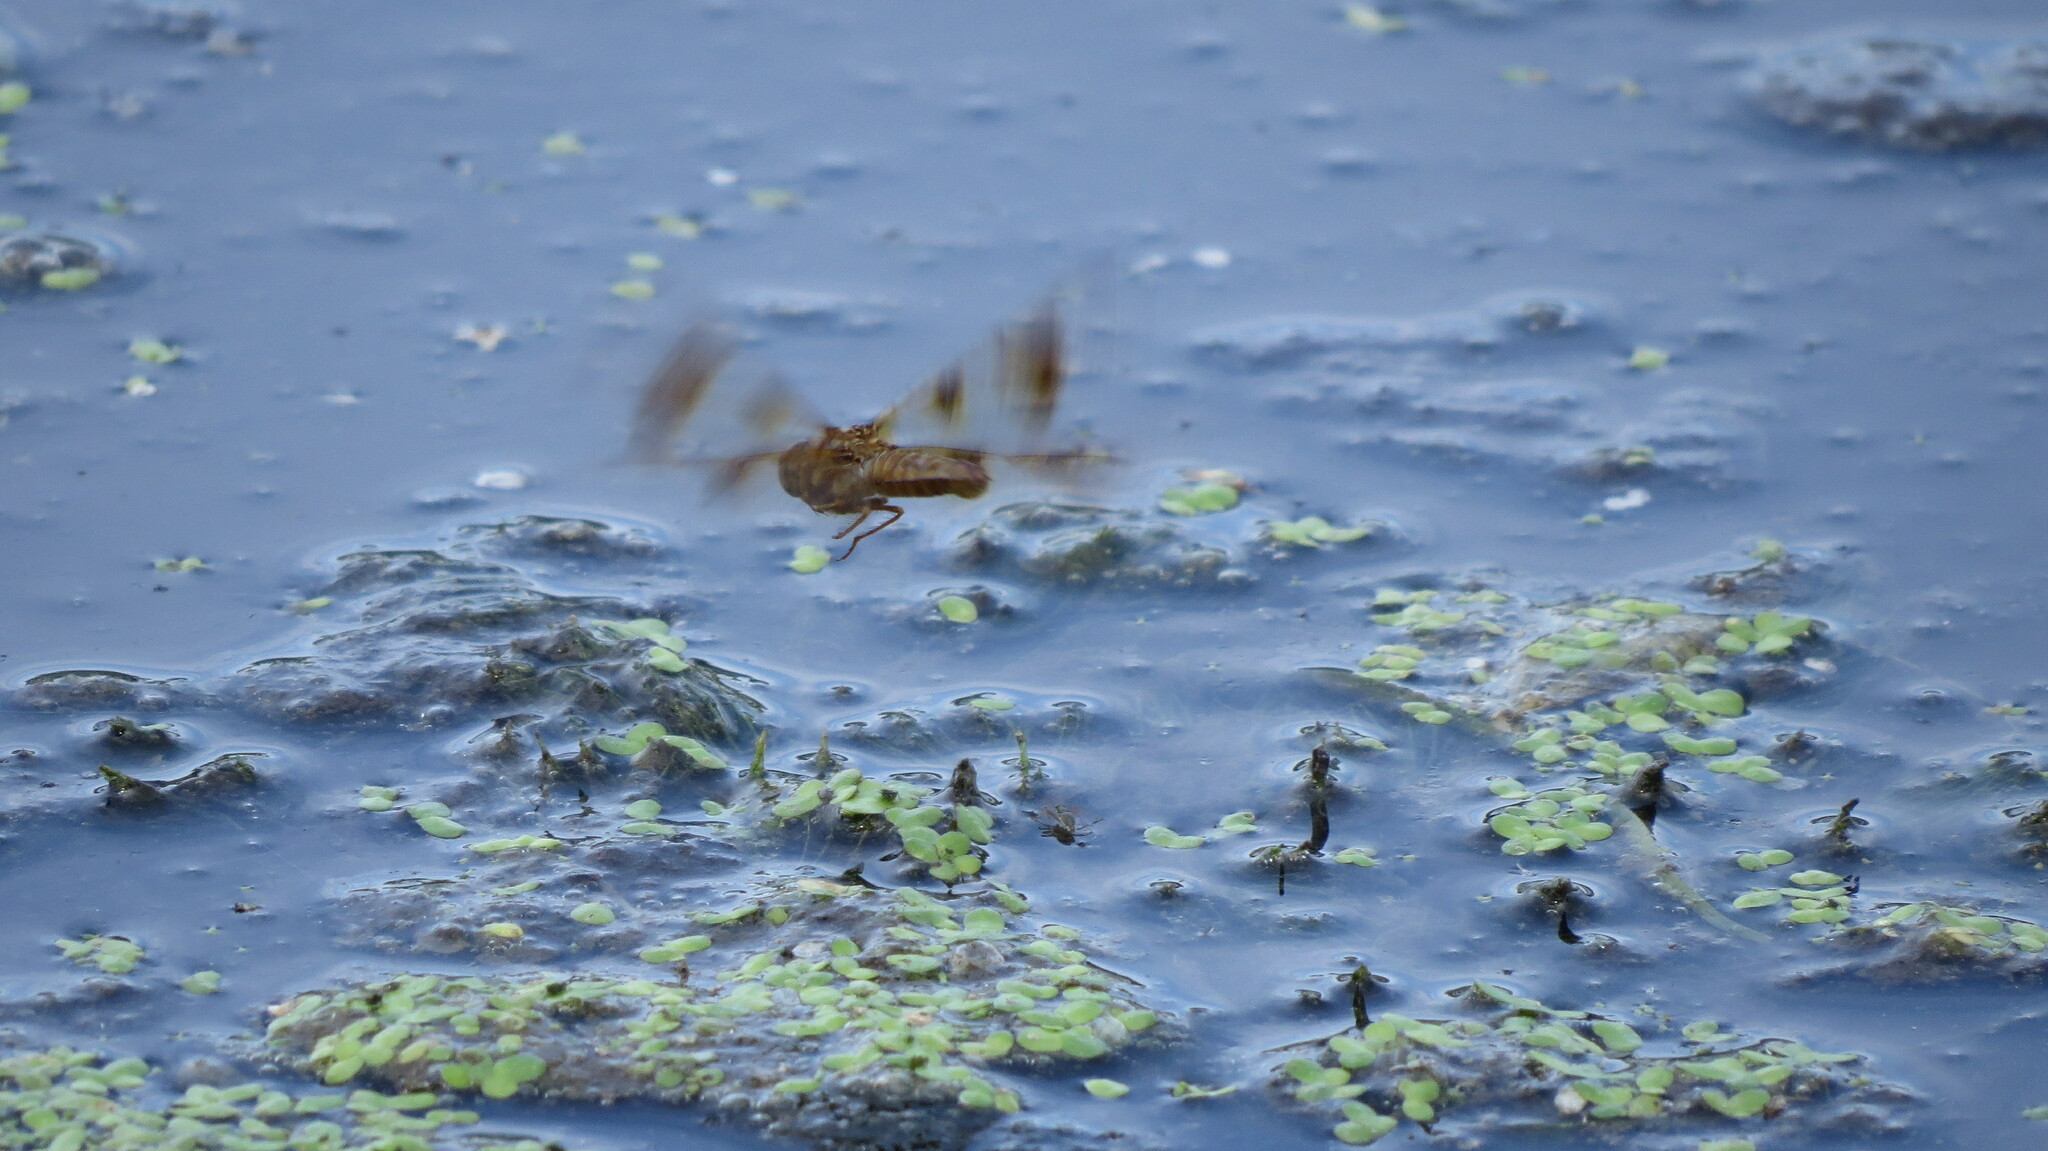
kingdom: Animalia
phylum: Arthropoda
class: Insecta
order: Odonata
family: Libellulidae
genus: Perithemis
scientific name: Perithemis tenera
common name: Eastern amberwing
